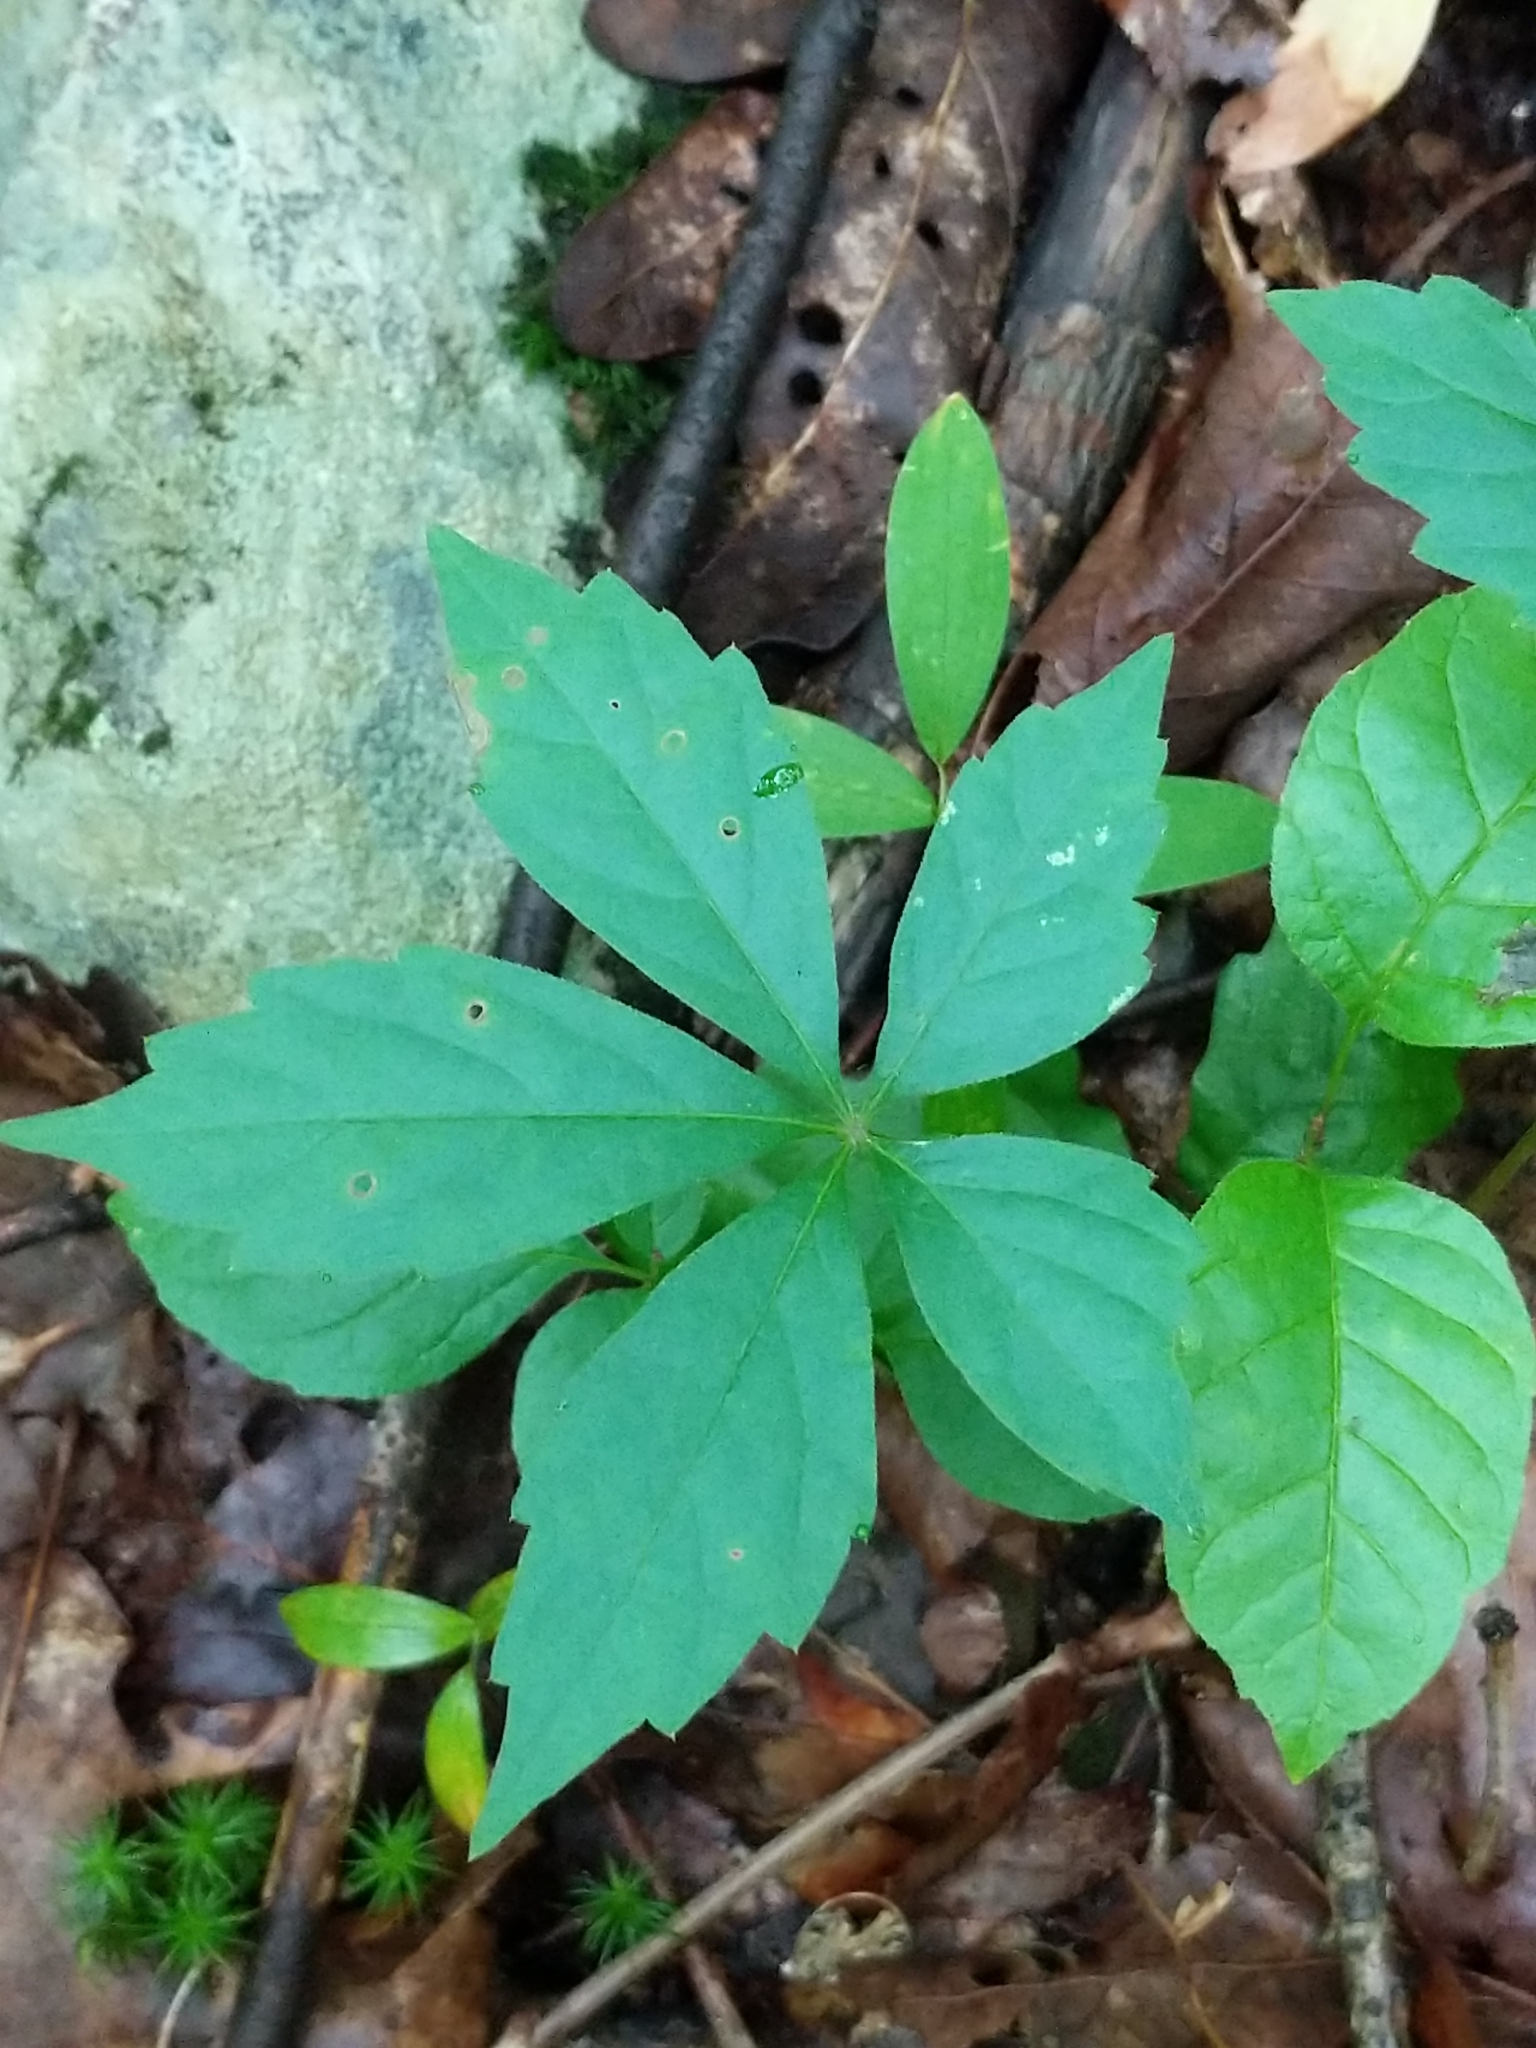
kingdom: Plantae
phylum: Tracheophyta
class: Magnoliopsida
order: Vitales
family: Vitaceae
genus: Parthenocissus
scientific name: Parthenocissus quinquefolia
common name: Virginia-creeper
